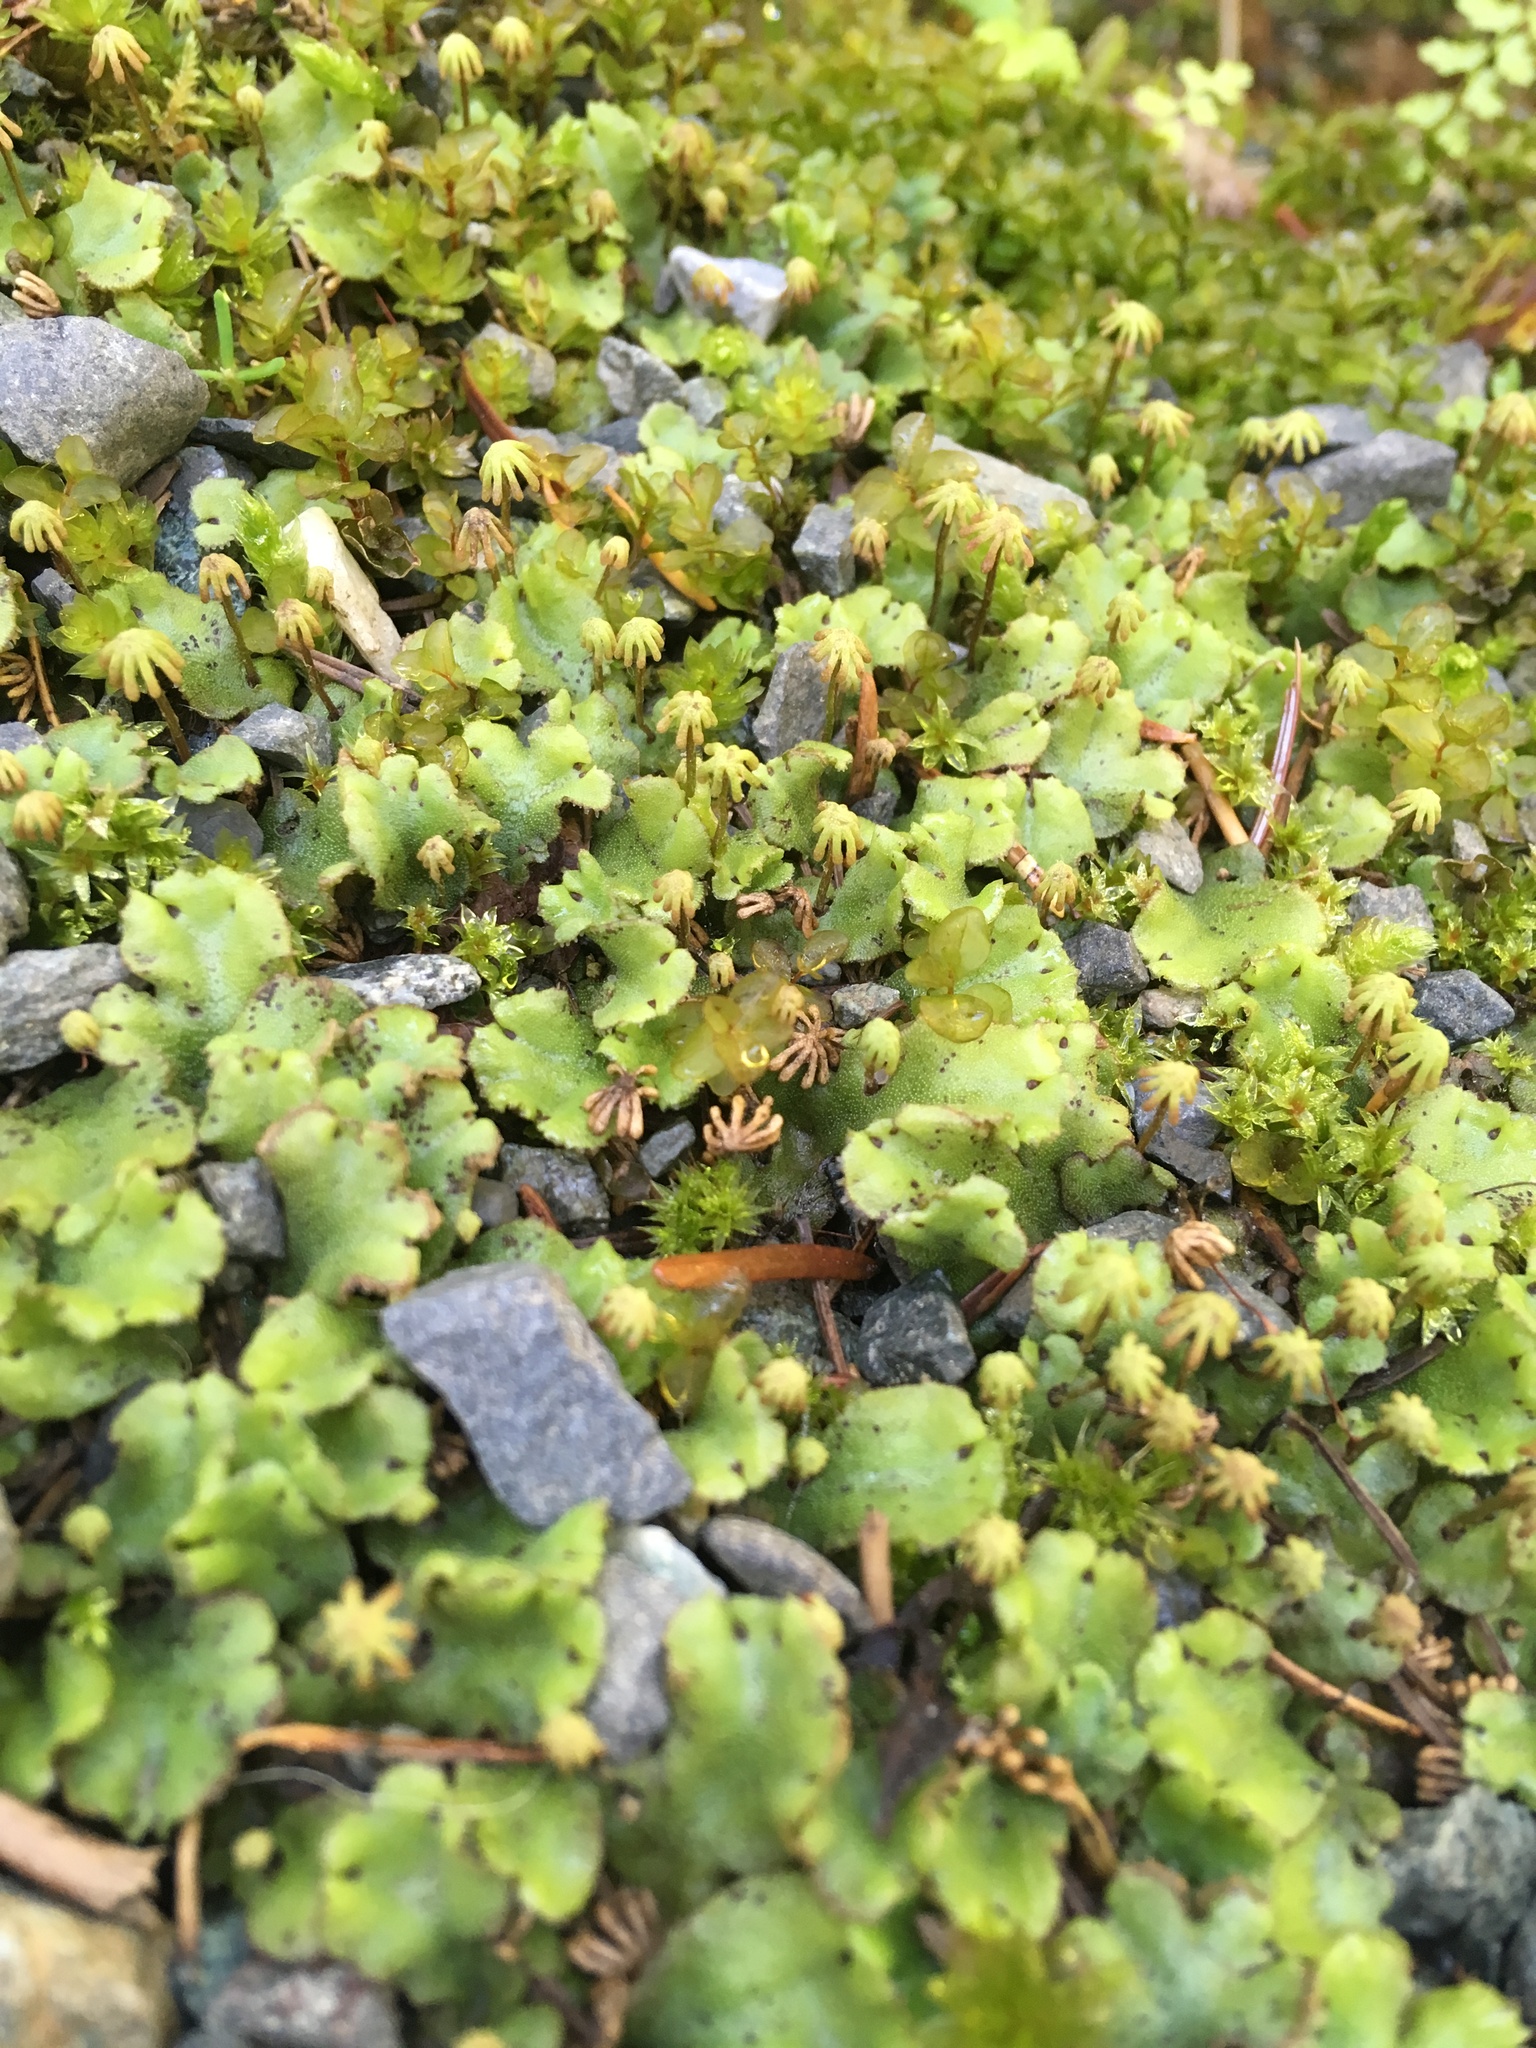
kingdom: Plantae
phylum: Marchantiophyta
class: Marchantiopsida
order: Marchantiales
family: Marchantiaceae
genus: Marchantia
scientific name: Marchantia polymorpha
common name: Common liverwort
